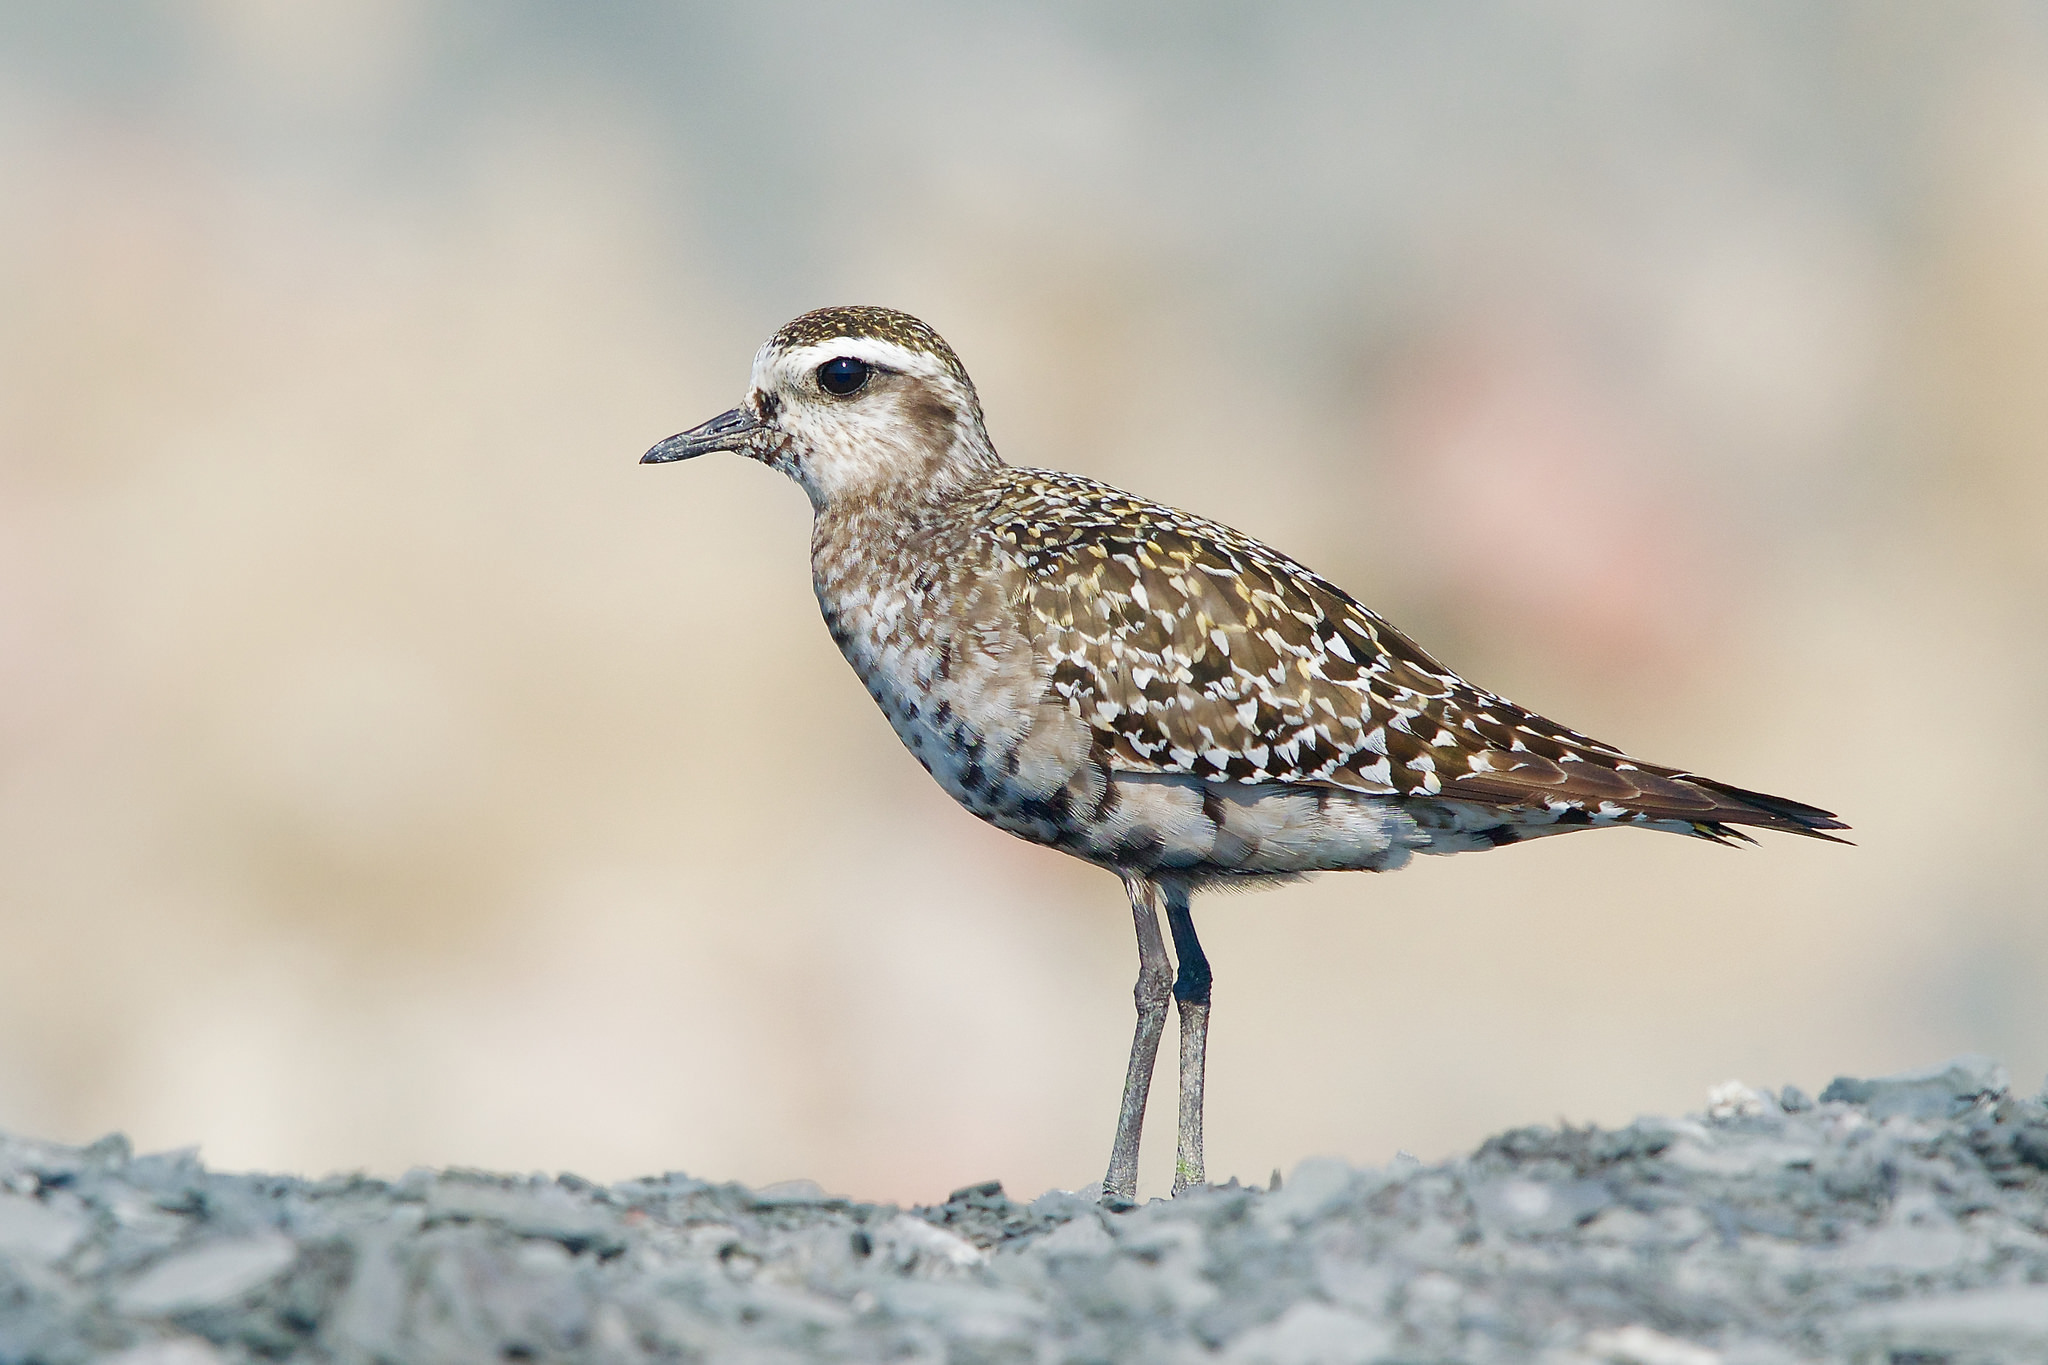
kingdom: Animalia
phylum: Chordata
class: Aves
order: Charadriiformes
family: Charadriidae
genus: Pluvialis
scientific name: Pluvialis dominica
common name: American golden plover
